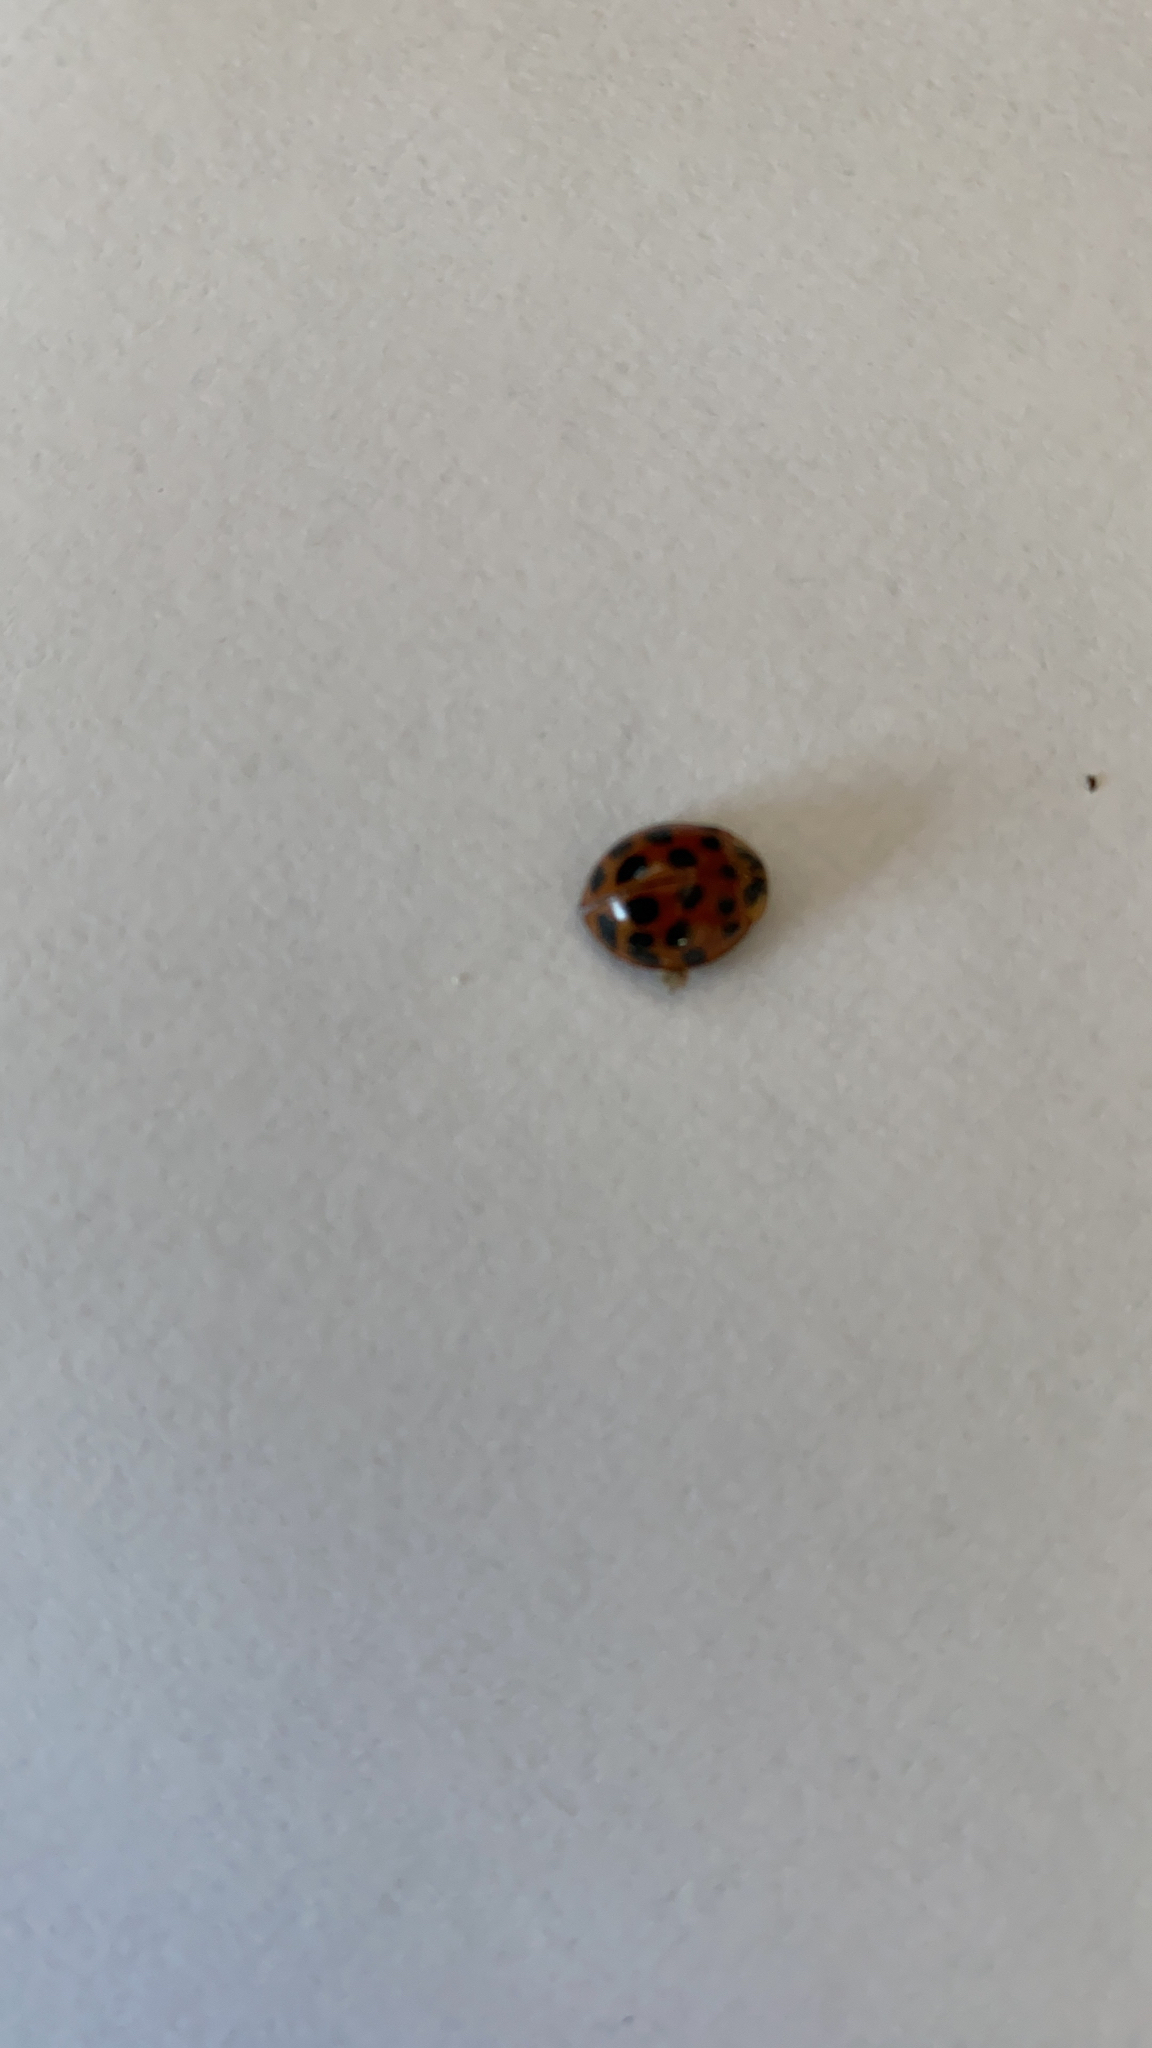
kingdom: Animalia
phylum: Arthropoda
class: Insecta
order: Coleoptera
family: Coccinellidae
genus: Harmonia
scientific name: Harmonia axyridis
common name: Harlequin ladybird
